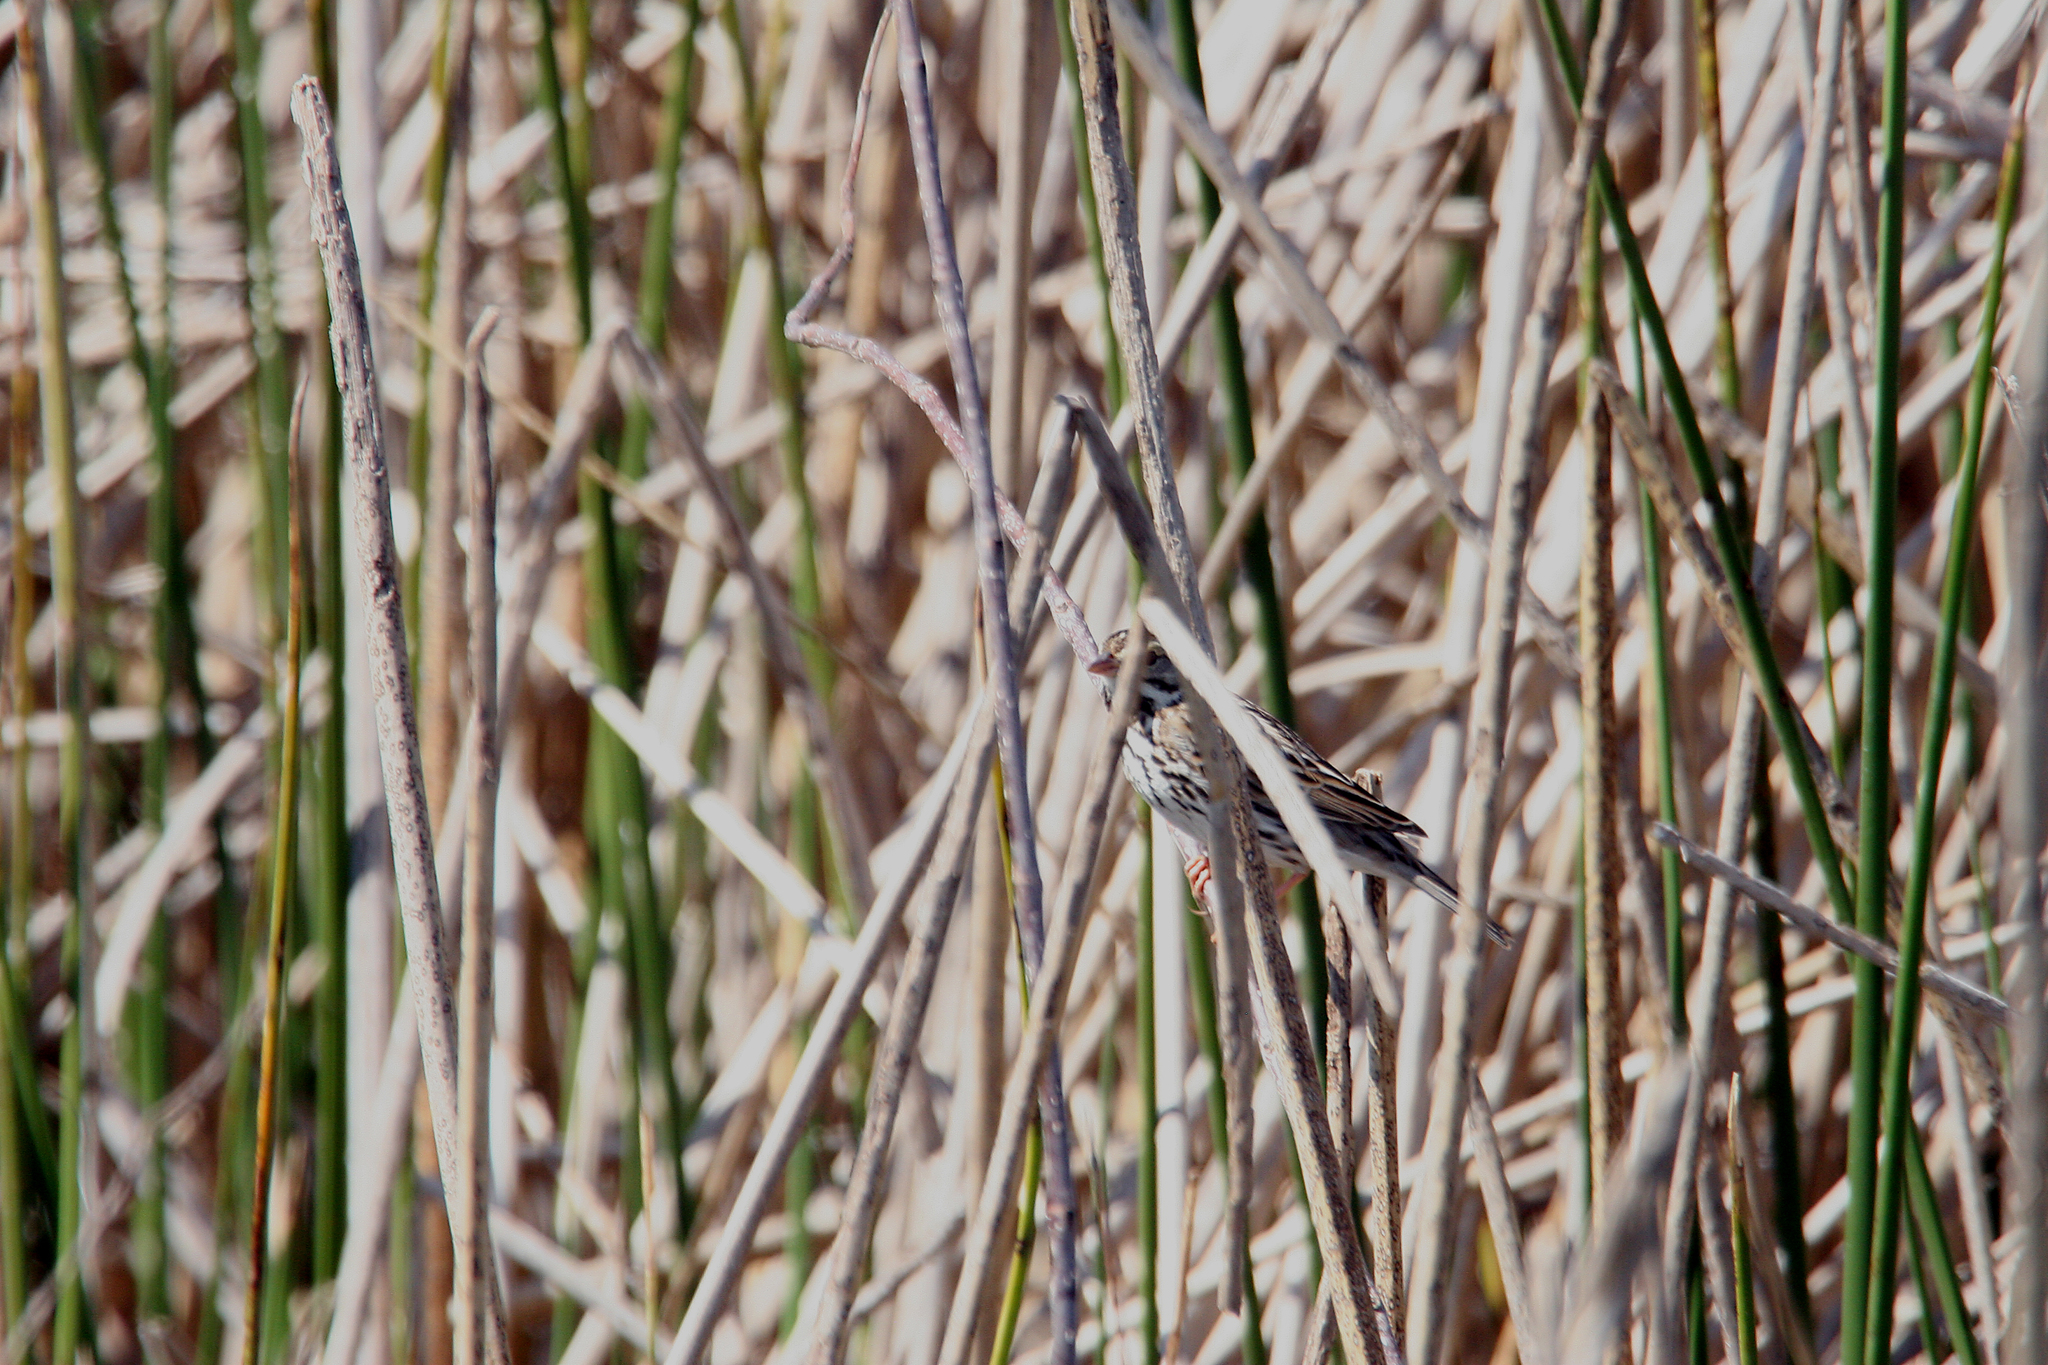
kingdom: Animalia
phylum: Chordata
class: Aves
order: Passeriformes
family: Passerellidae
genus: Passerculus
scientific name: Passerculus sandwichensis
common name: Savannah sparrow
